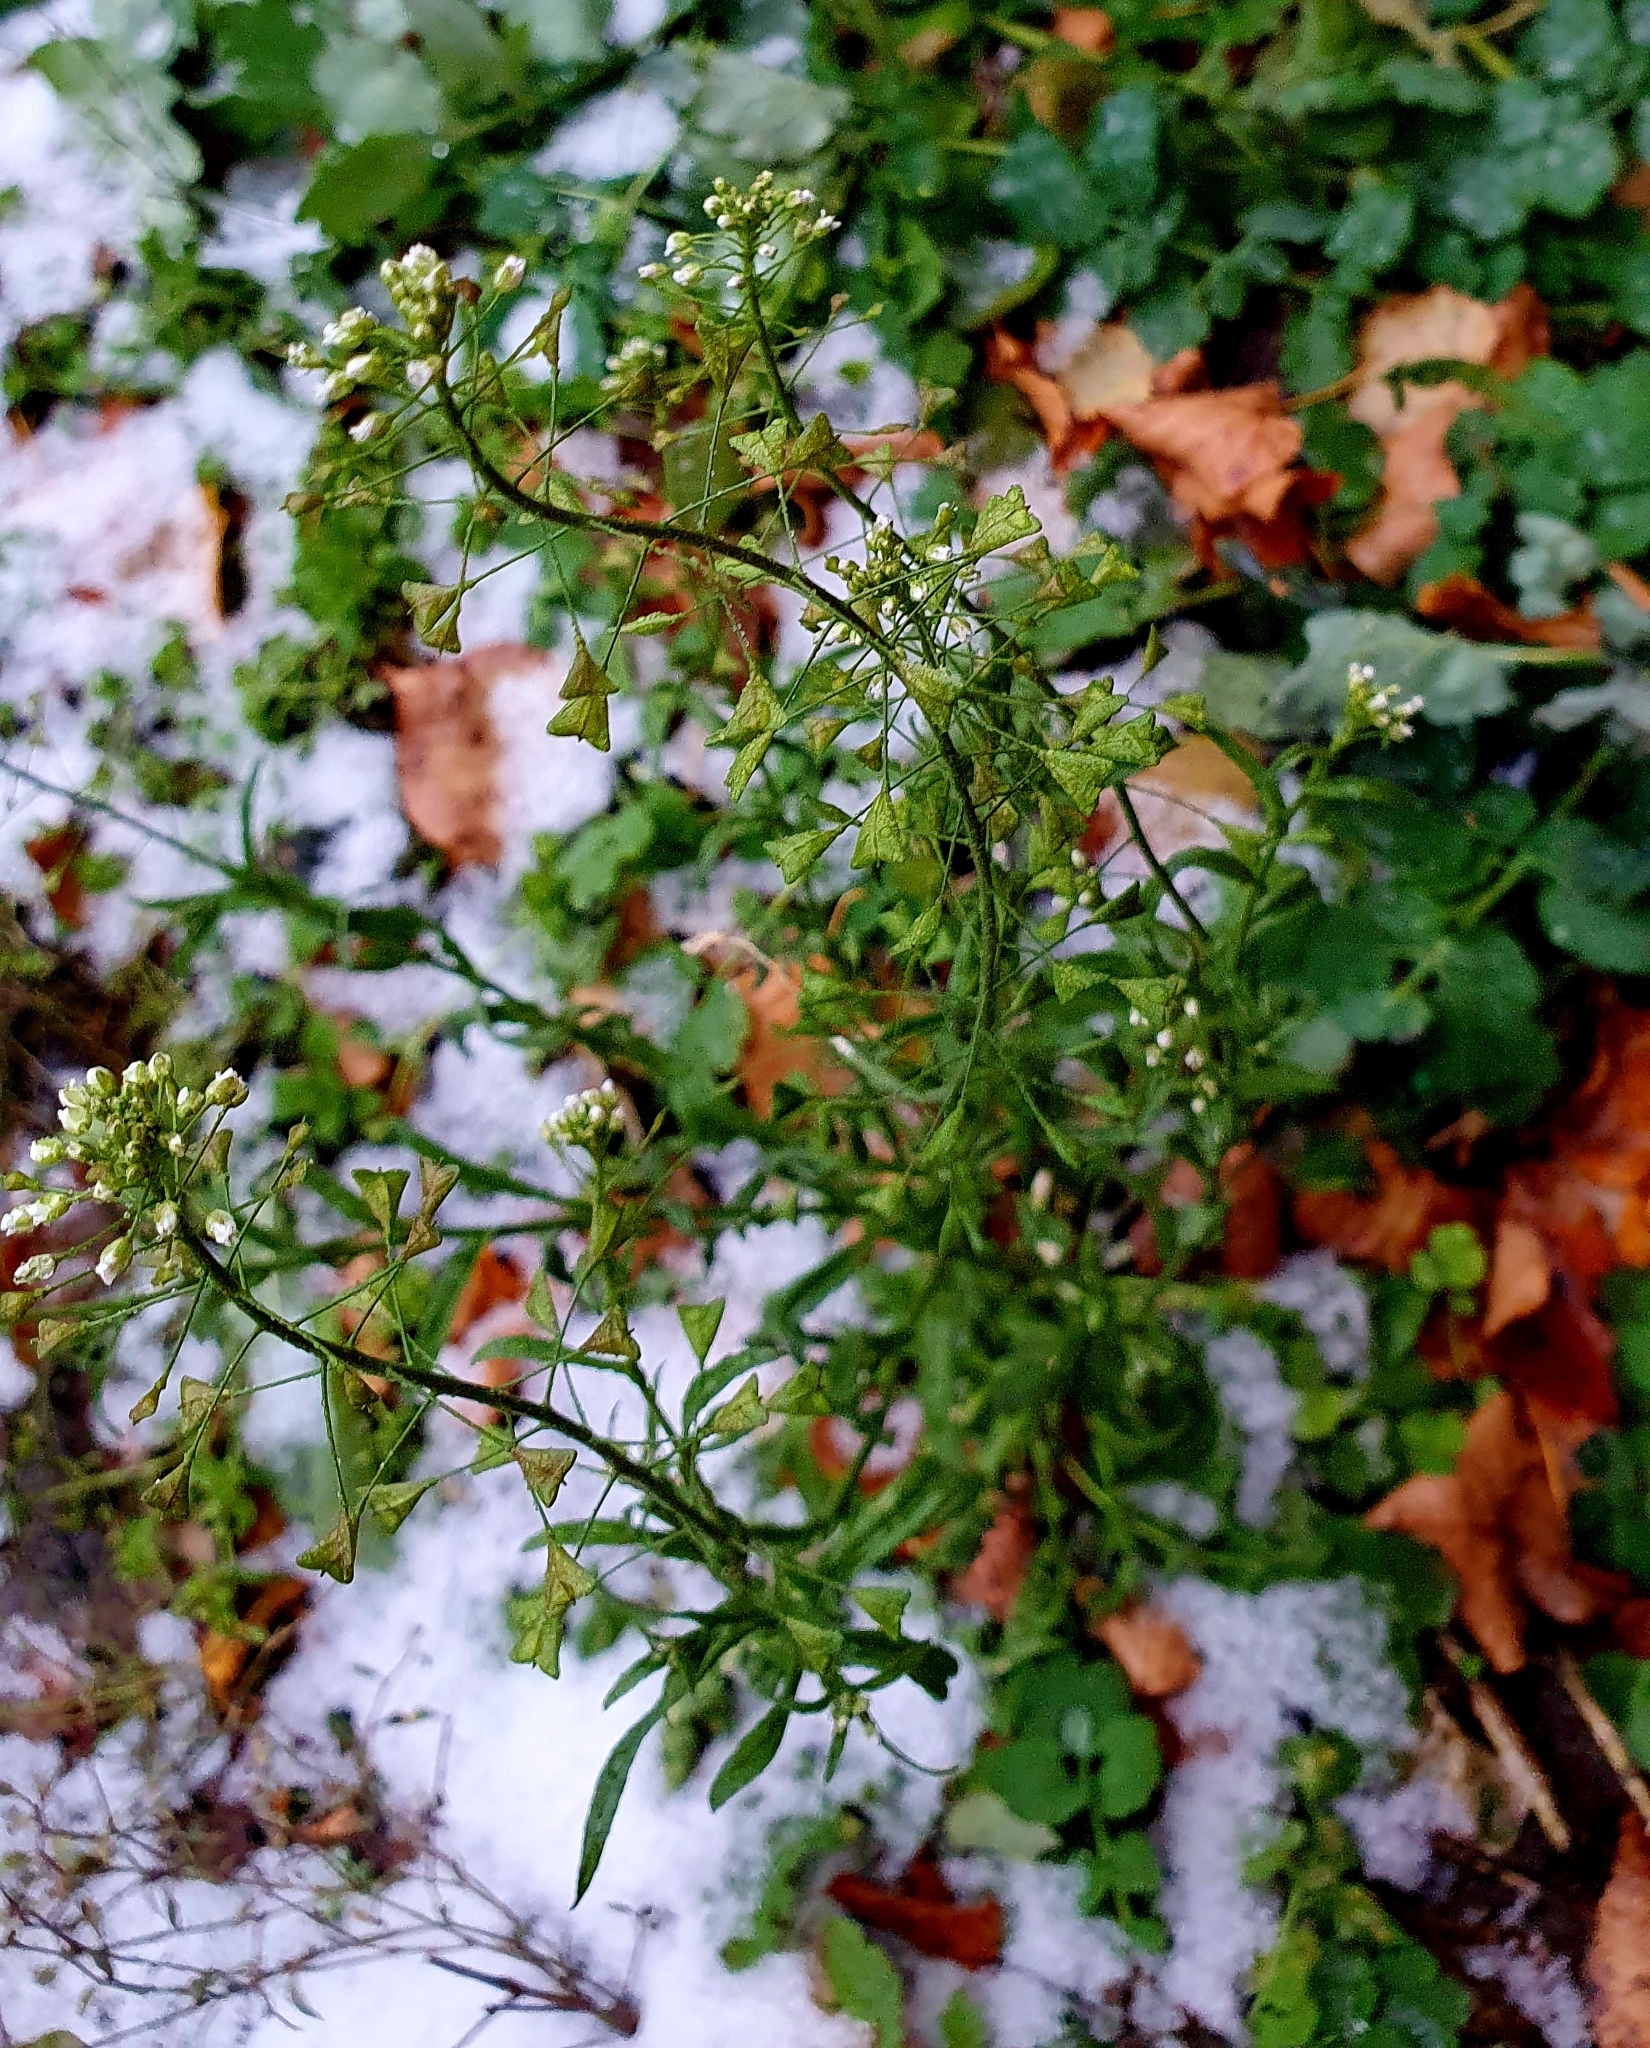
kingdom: Plantae
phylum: Tracheophyta
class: Magnoliopsida
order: Brassicales
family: Brassicaceae
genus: Capsella
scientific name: Capsella bursa-pastoris
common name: Shepherd's purse
